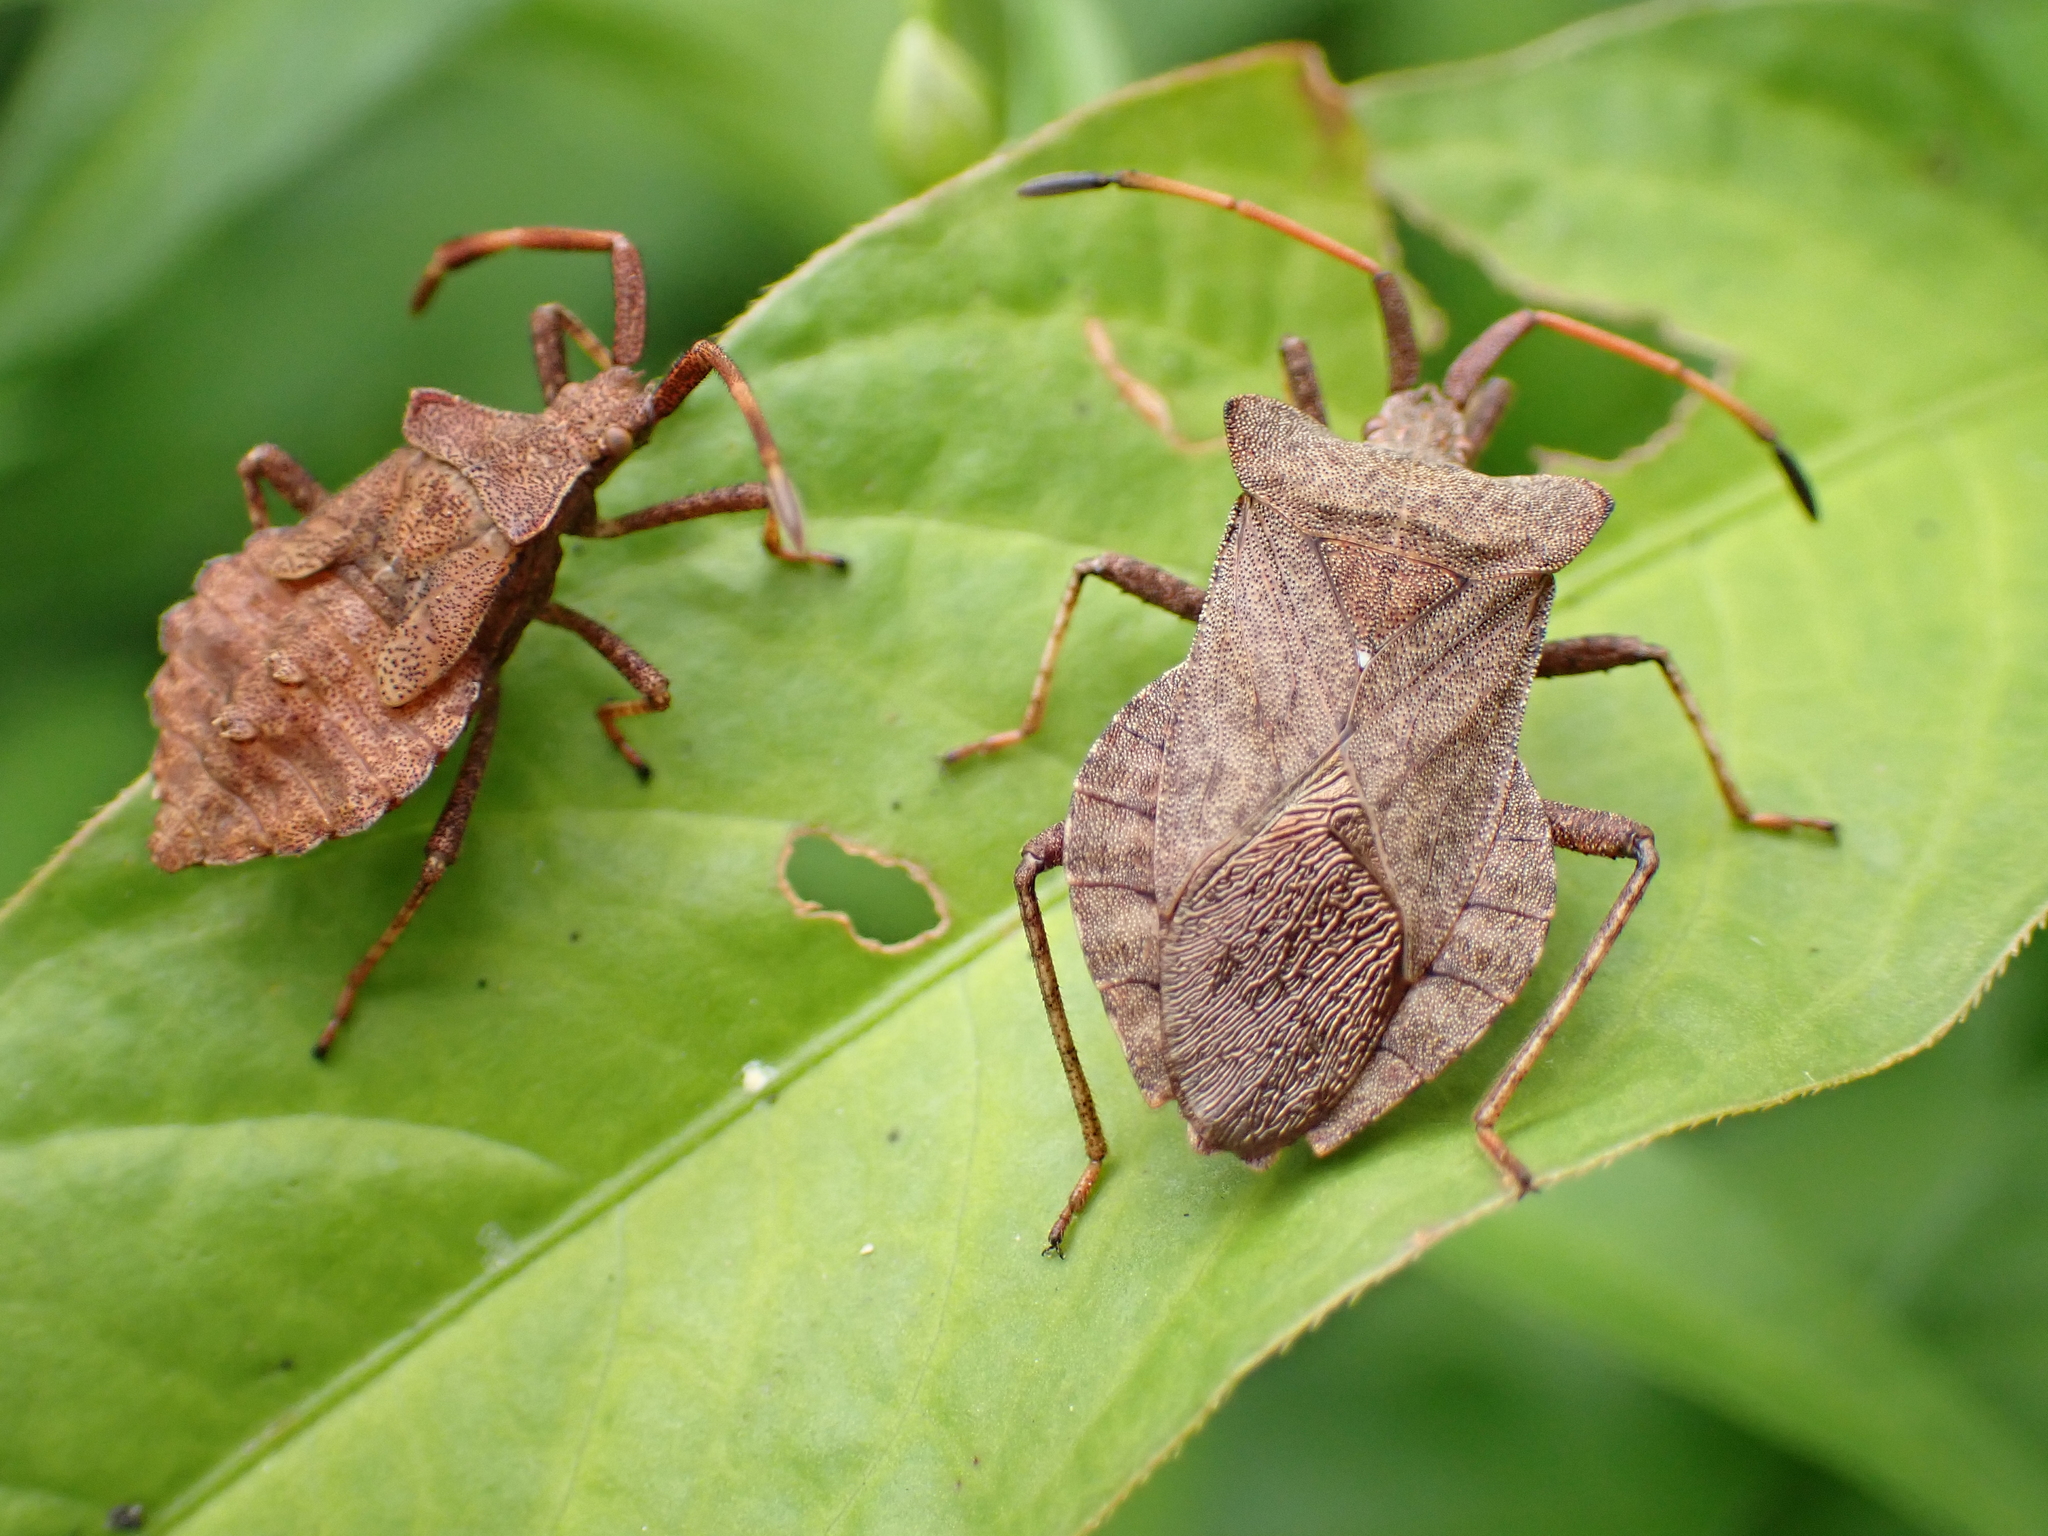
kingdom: Animalia
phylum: Arthropoda
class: Insecta
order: Hemiptera
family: Coreidae
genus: Coreus
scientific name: Coreus marginatus
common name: Dock bug
